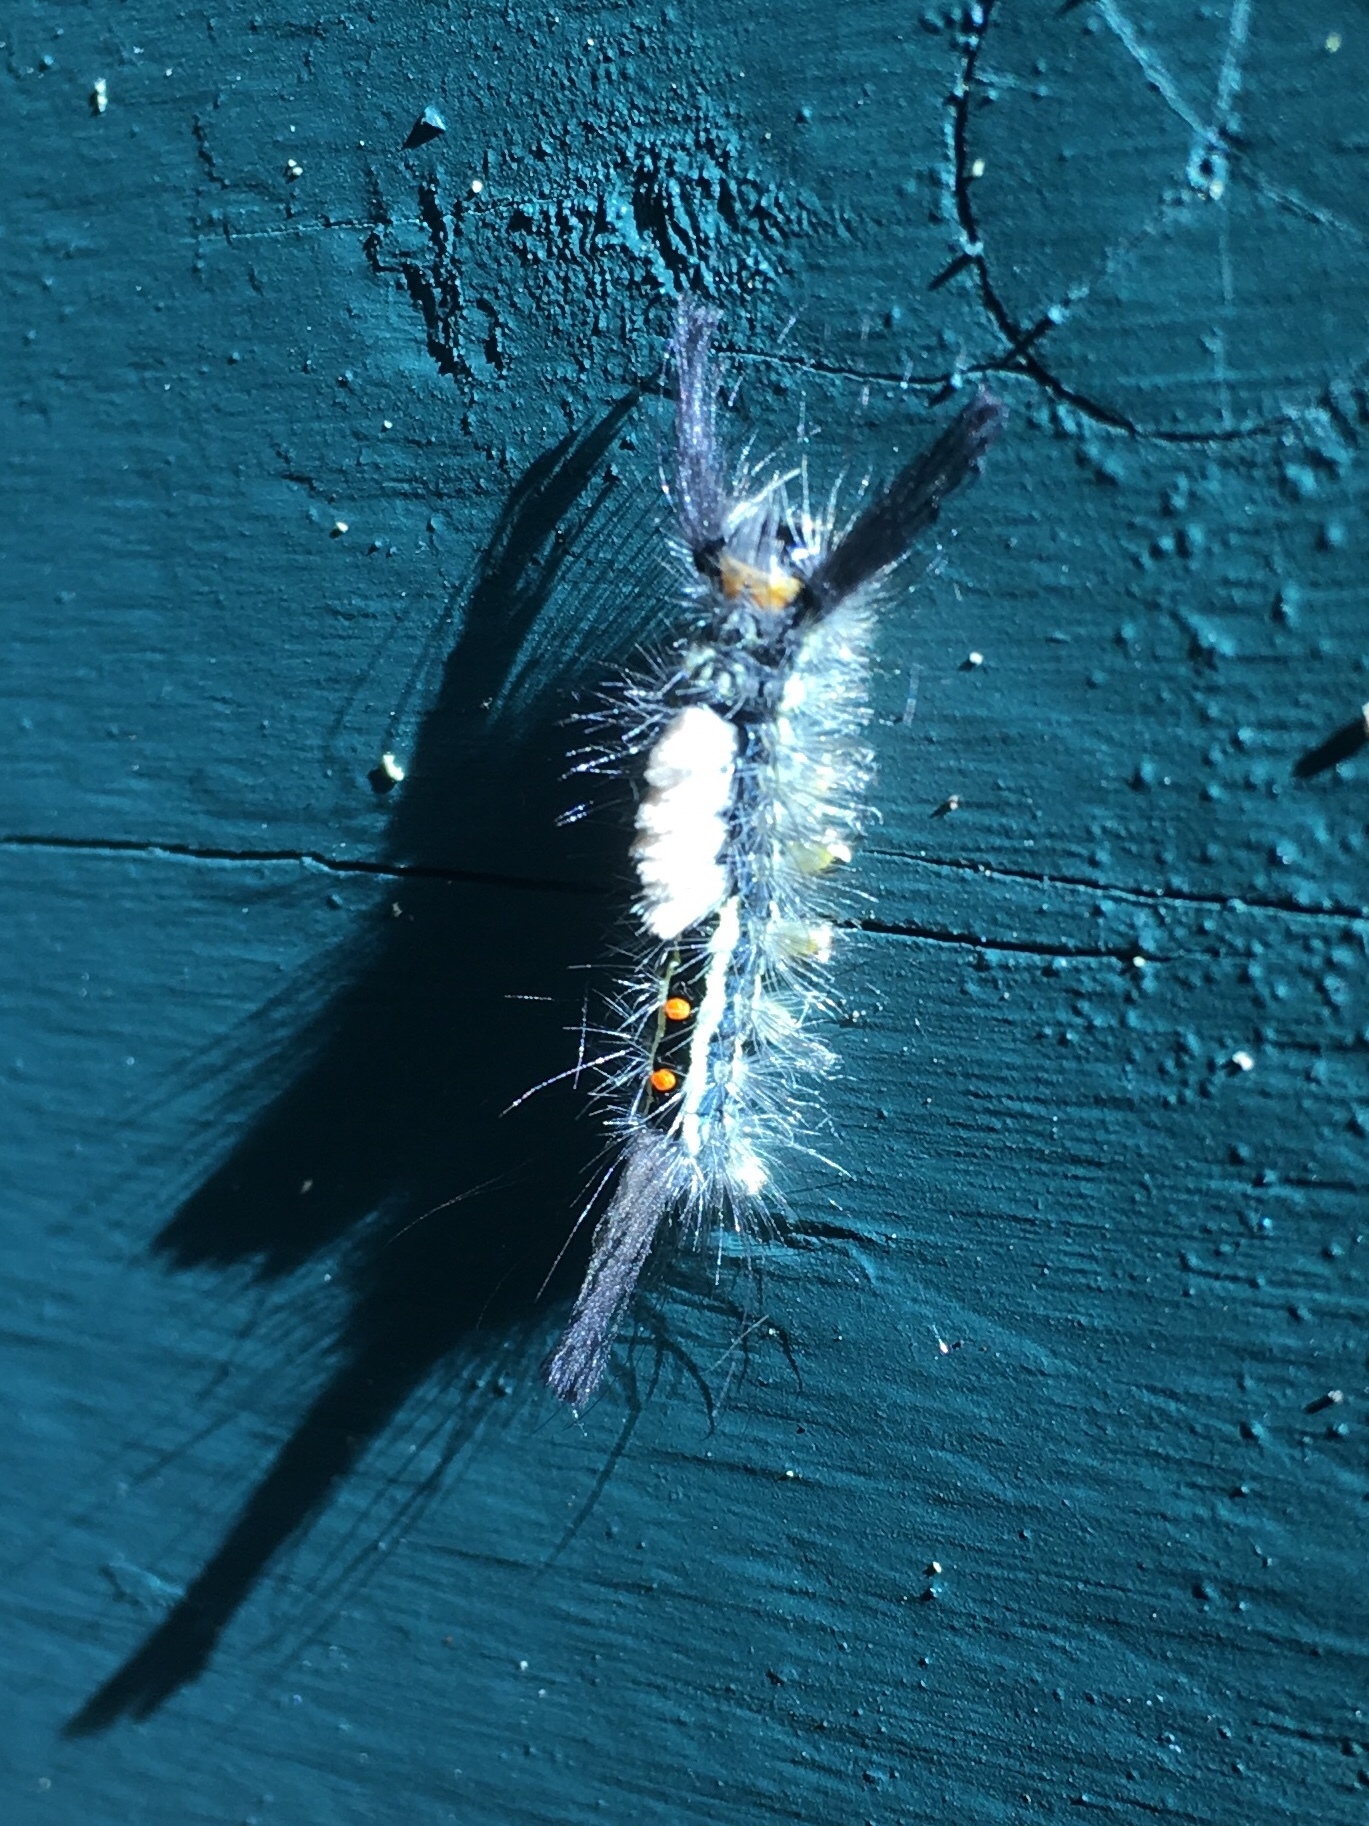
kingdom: Animalia
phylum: Arthropoda
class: Insecta
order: Lepidoptera
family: Erebidae
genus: Orgyia
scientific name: Orgyia leucostigma
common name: White-marked tussock moth
